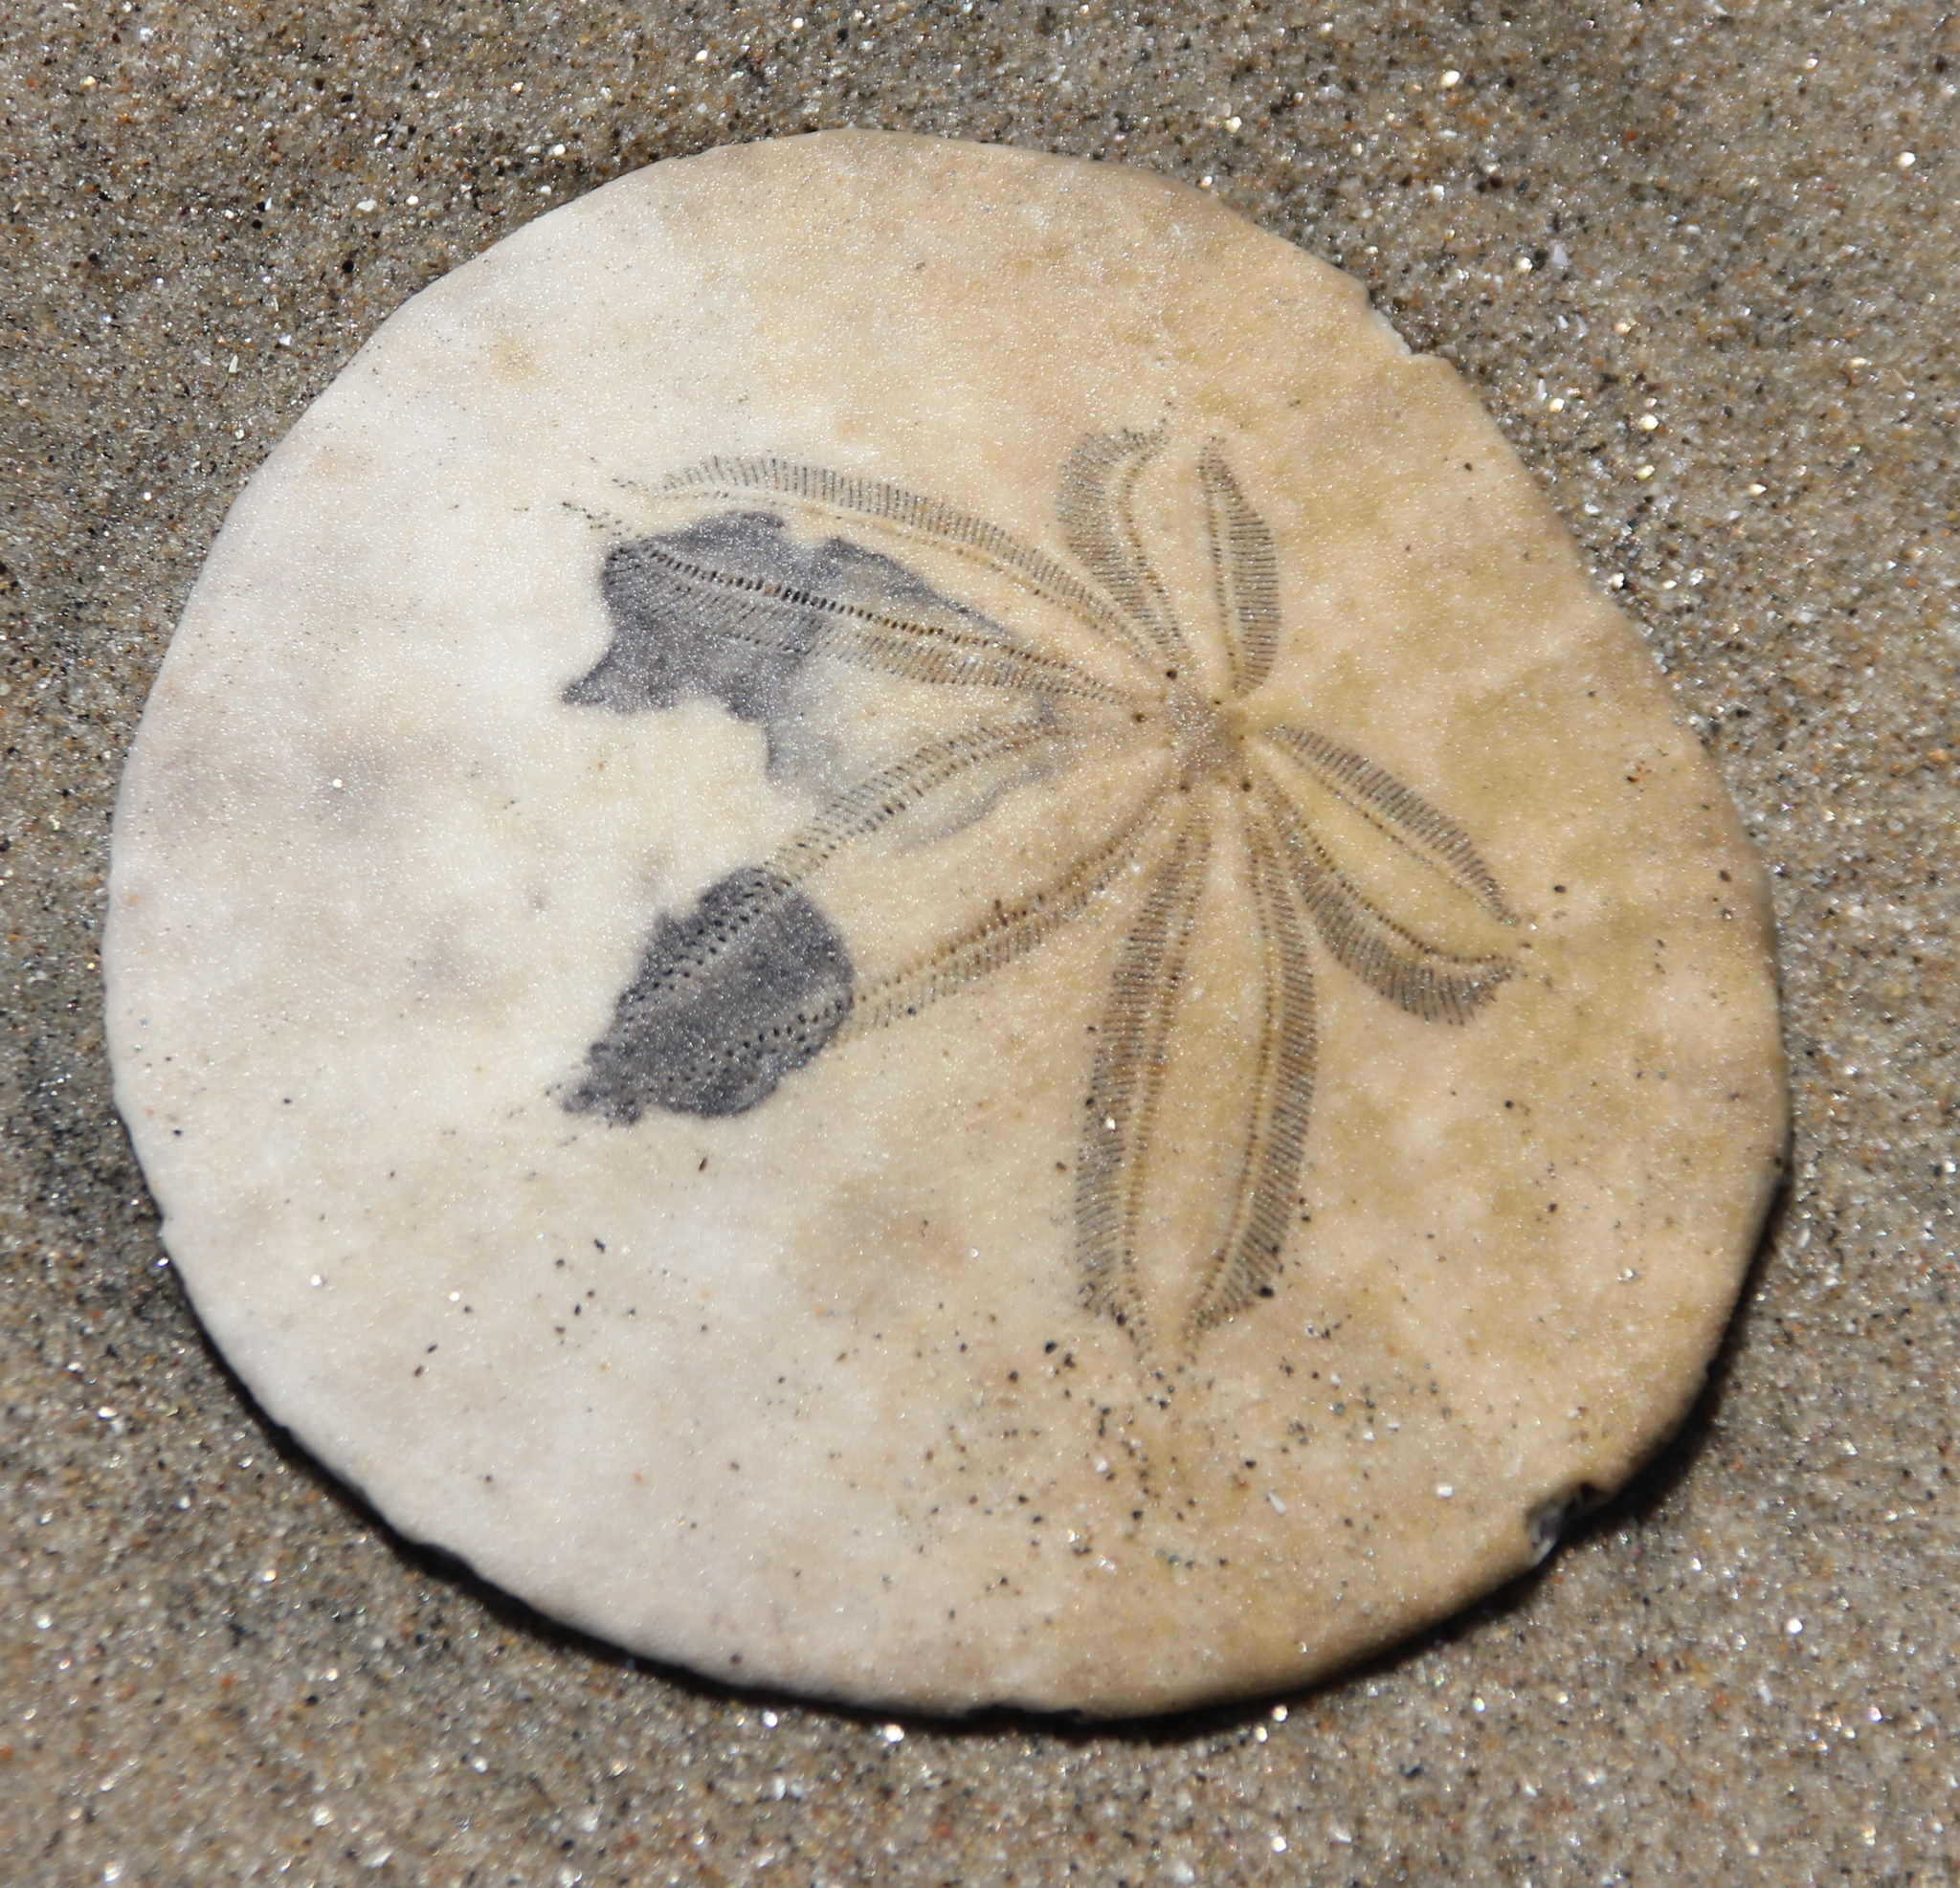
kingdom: Animalia
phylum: Echinodermata
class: Echinoidea
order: Echinolampadacea
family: Dendrasteridae
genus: Dendraster
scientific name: Dendraster excentricus
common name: Eccentric sand dollar sea urchin
